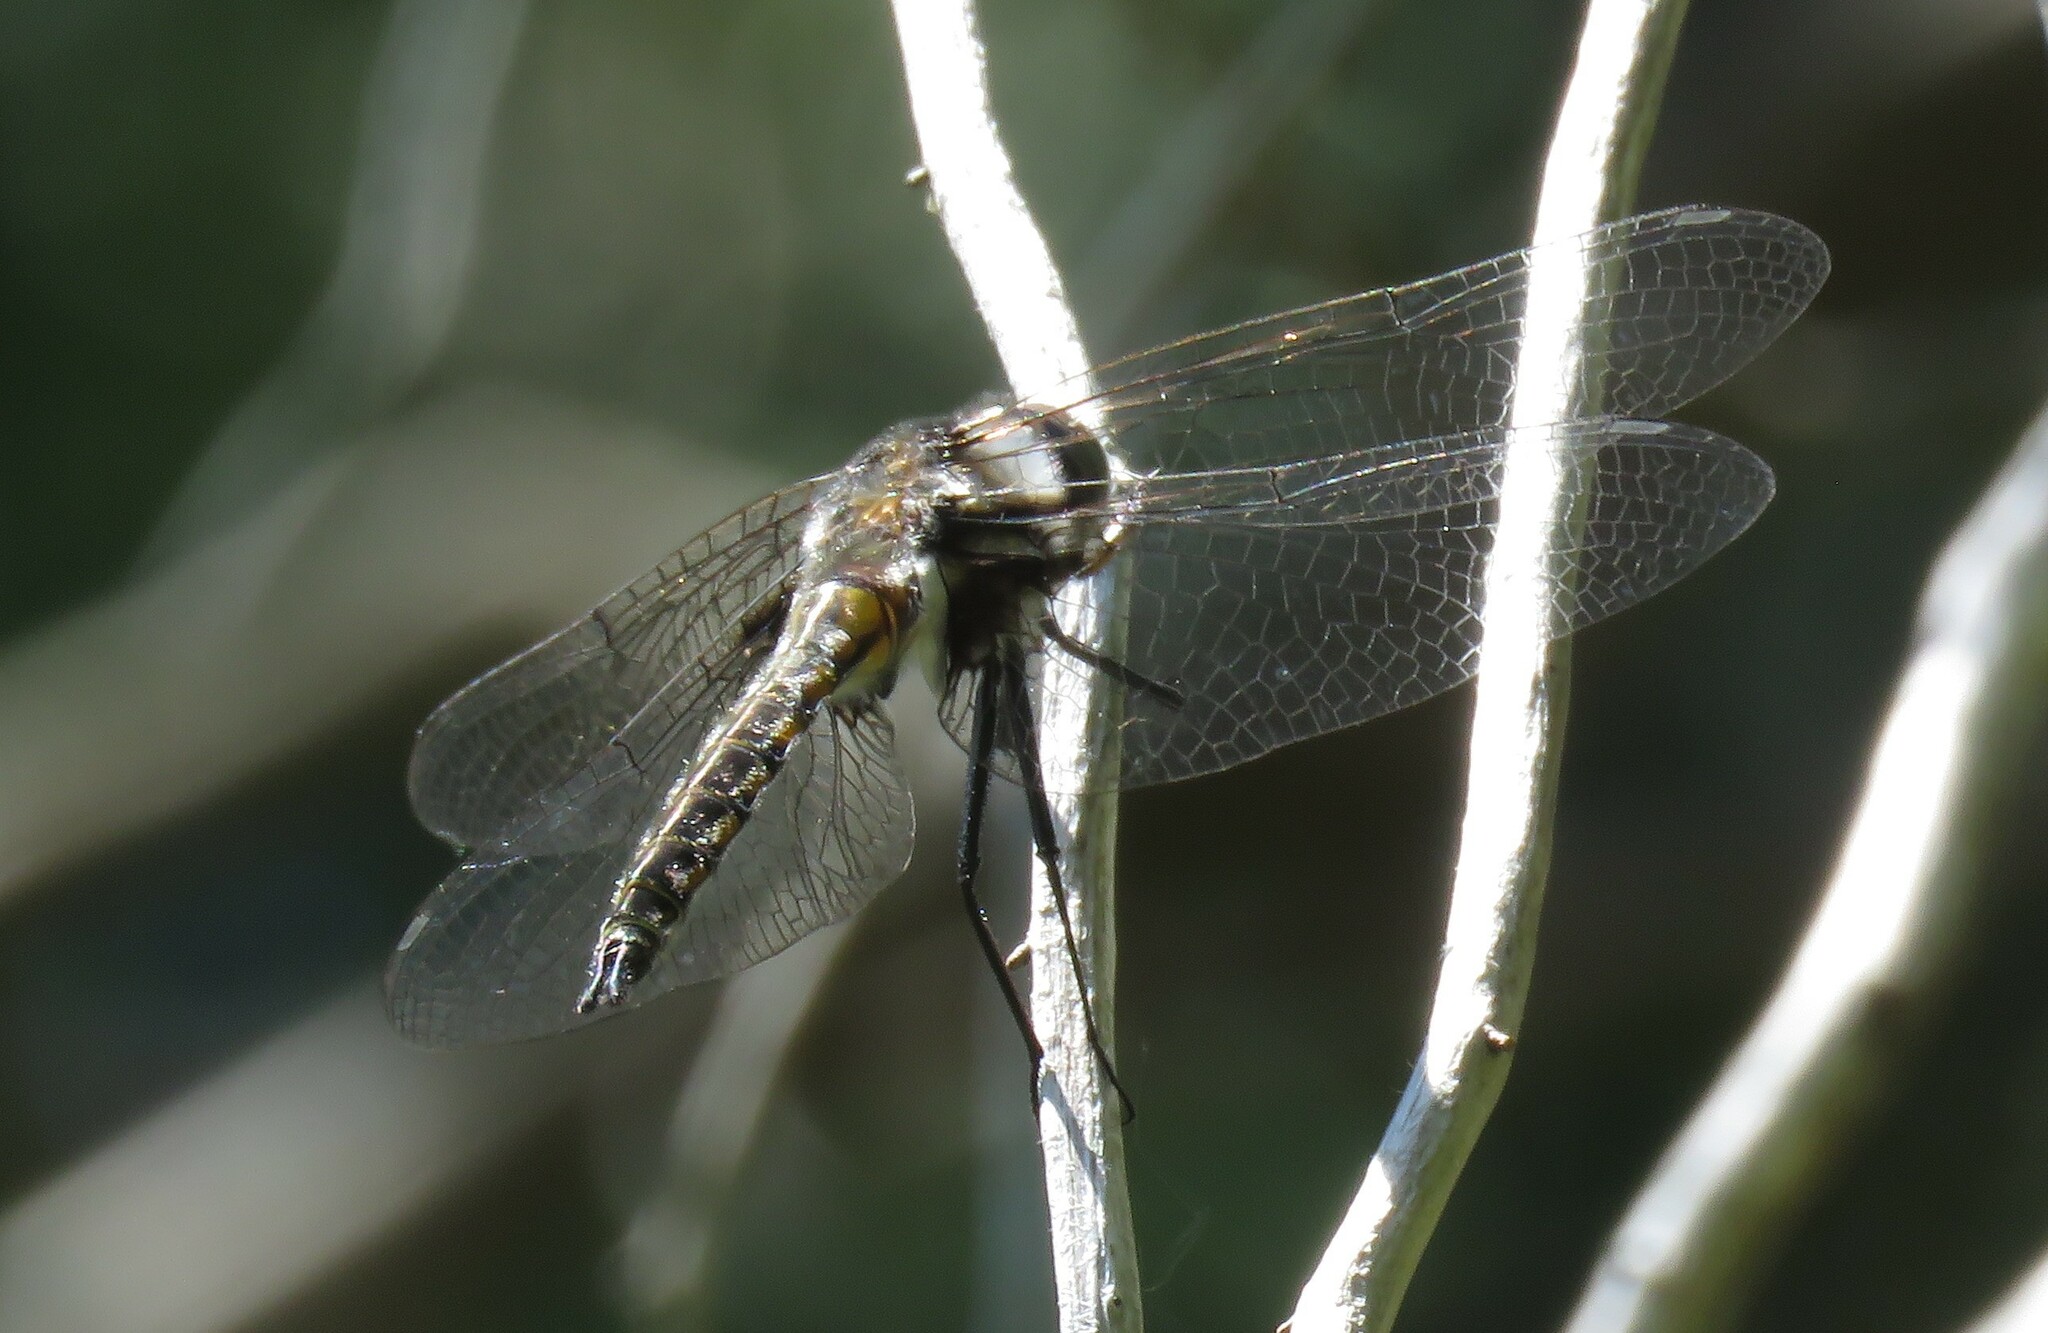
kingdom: Animalia
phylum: Arthropoda
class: Insecta
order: Odonata
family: Corduliidae
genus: Epitheca
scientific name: Epitheca cynosura
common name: Common baskettail
